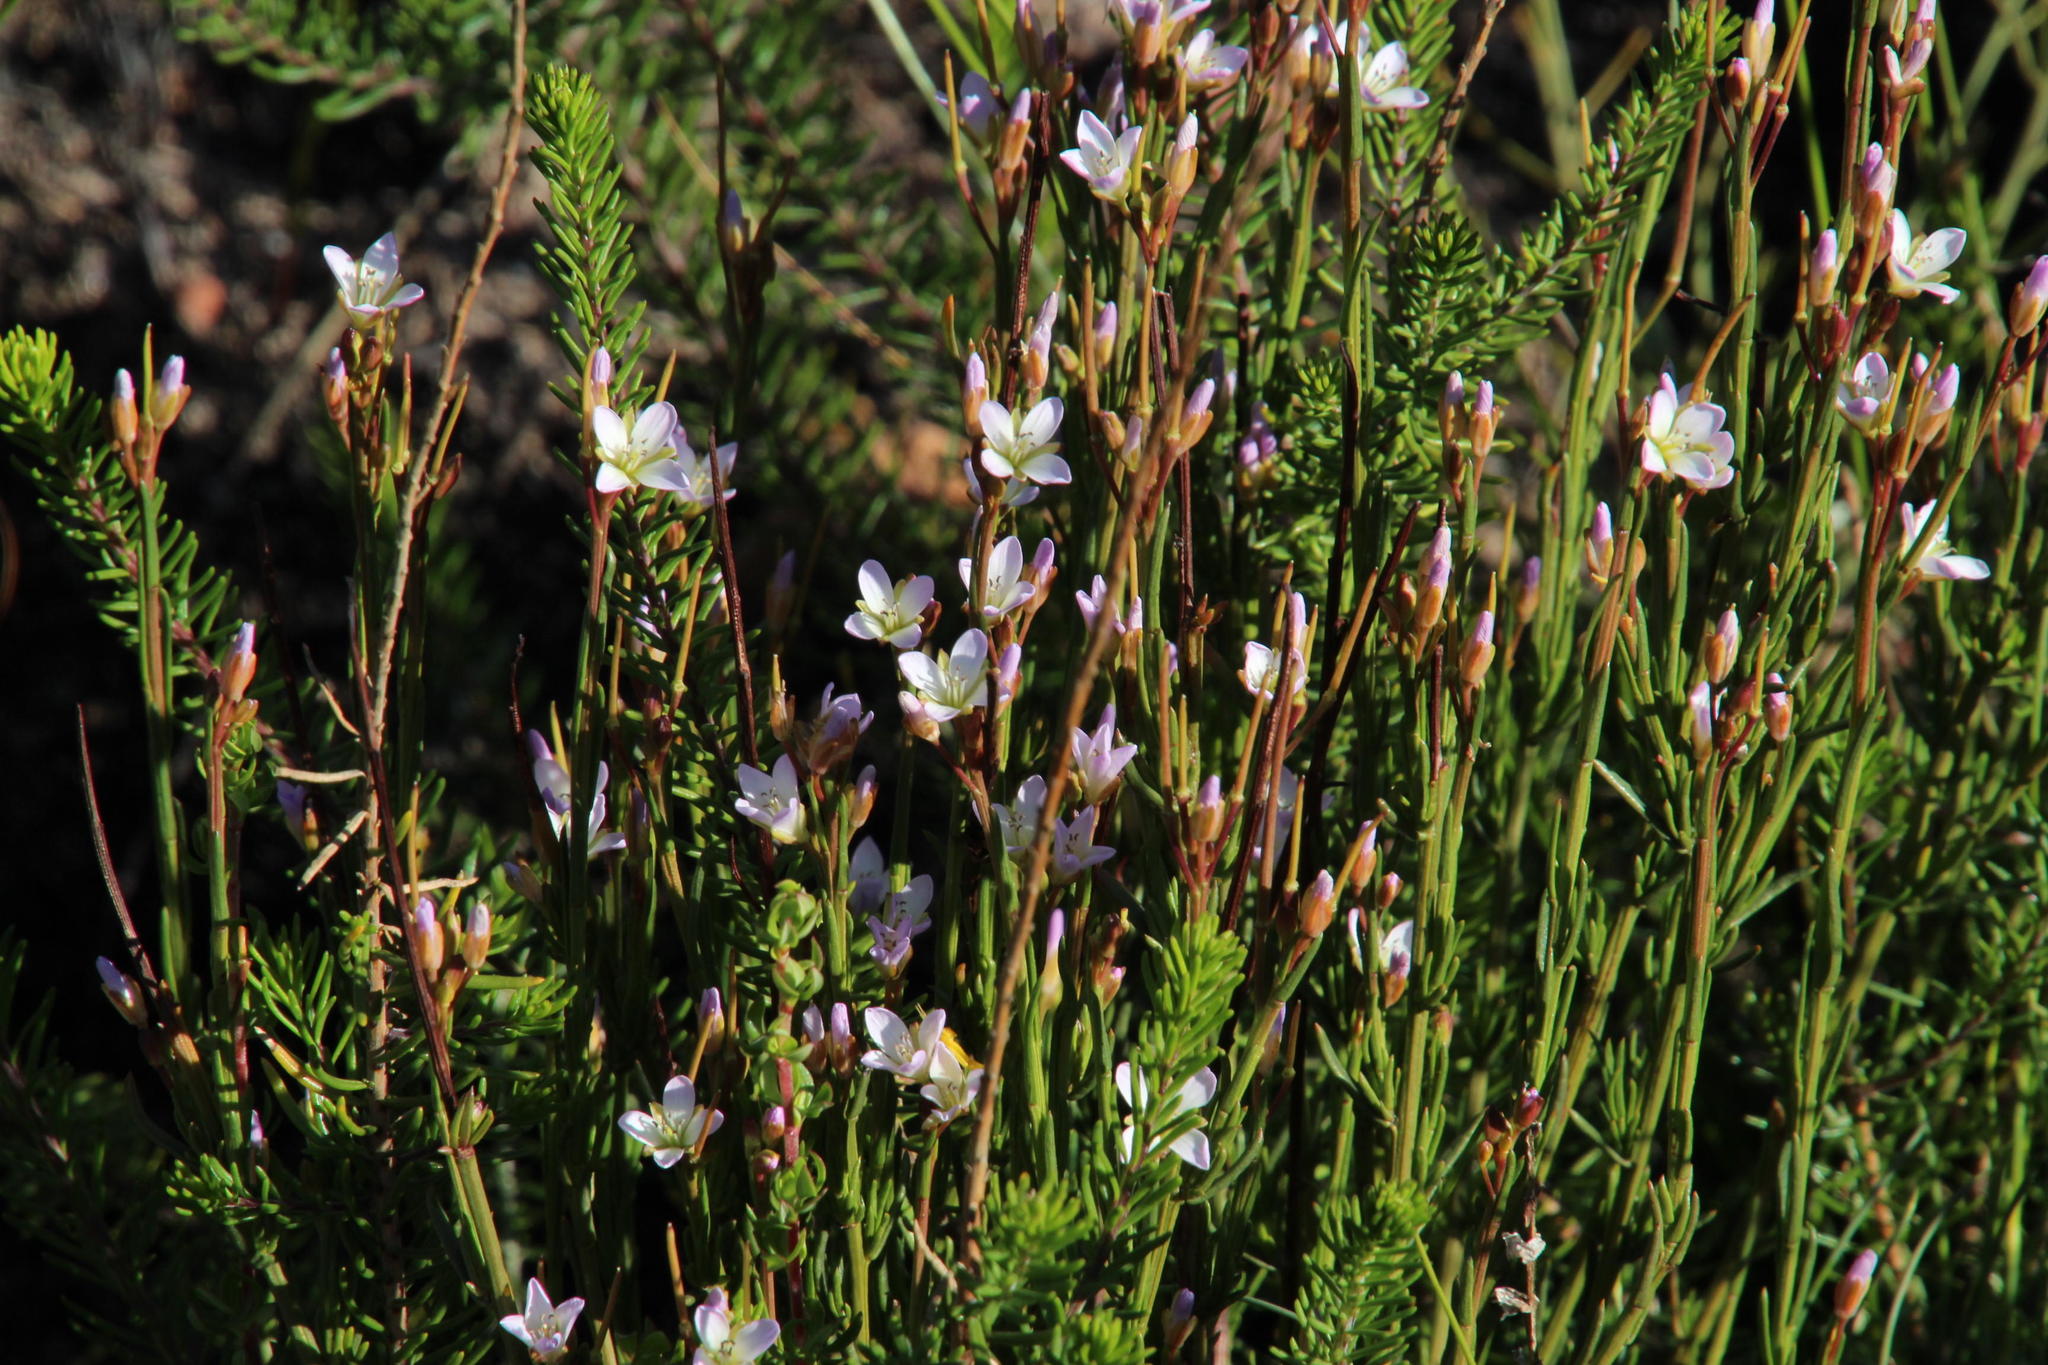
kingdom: Plantae
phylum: Tracheophyta
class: Magnoliopsida
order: Brassicales
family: Brassicaceae
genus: Heliophila
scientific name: Heliophila scoparia
